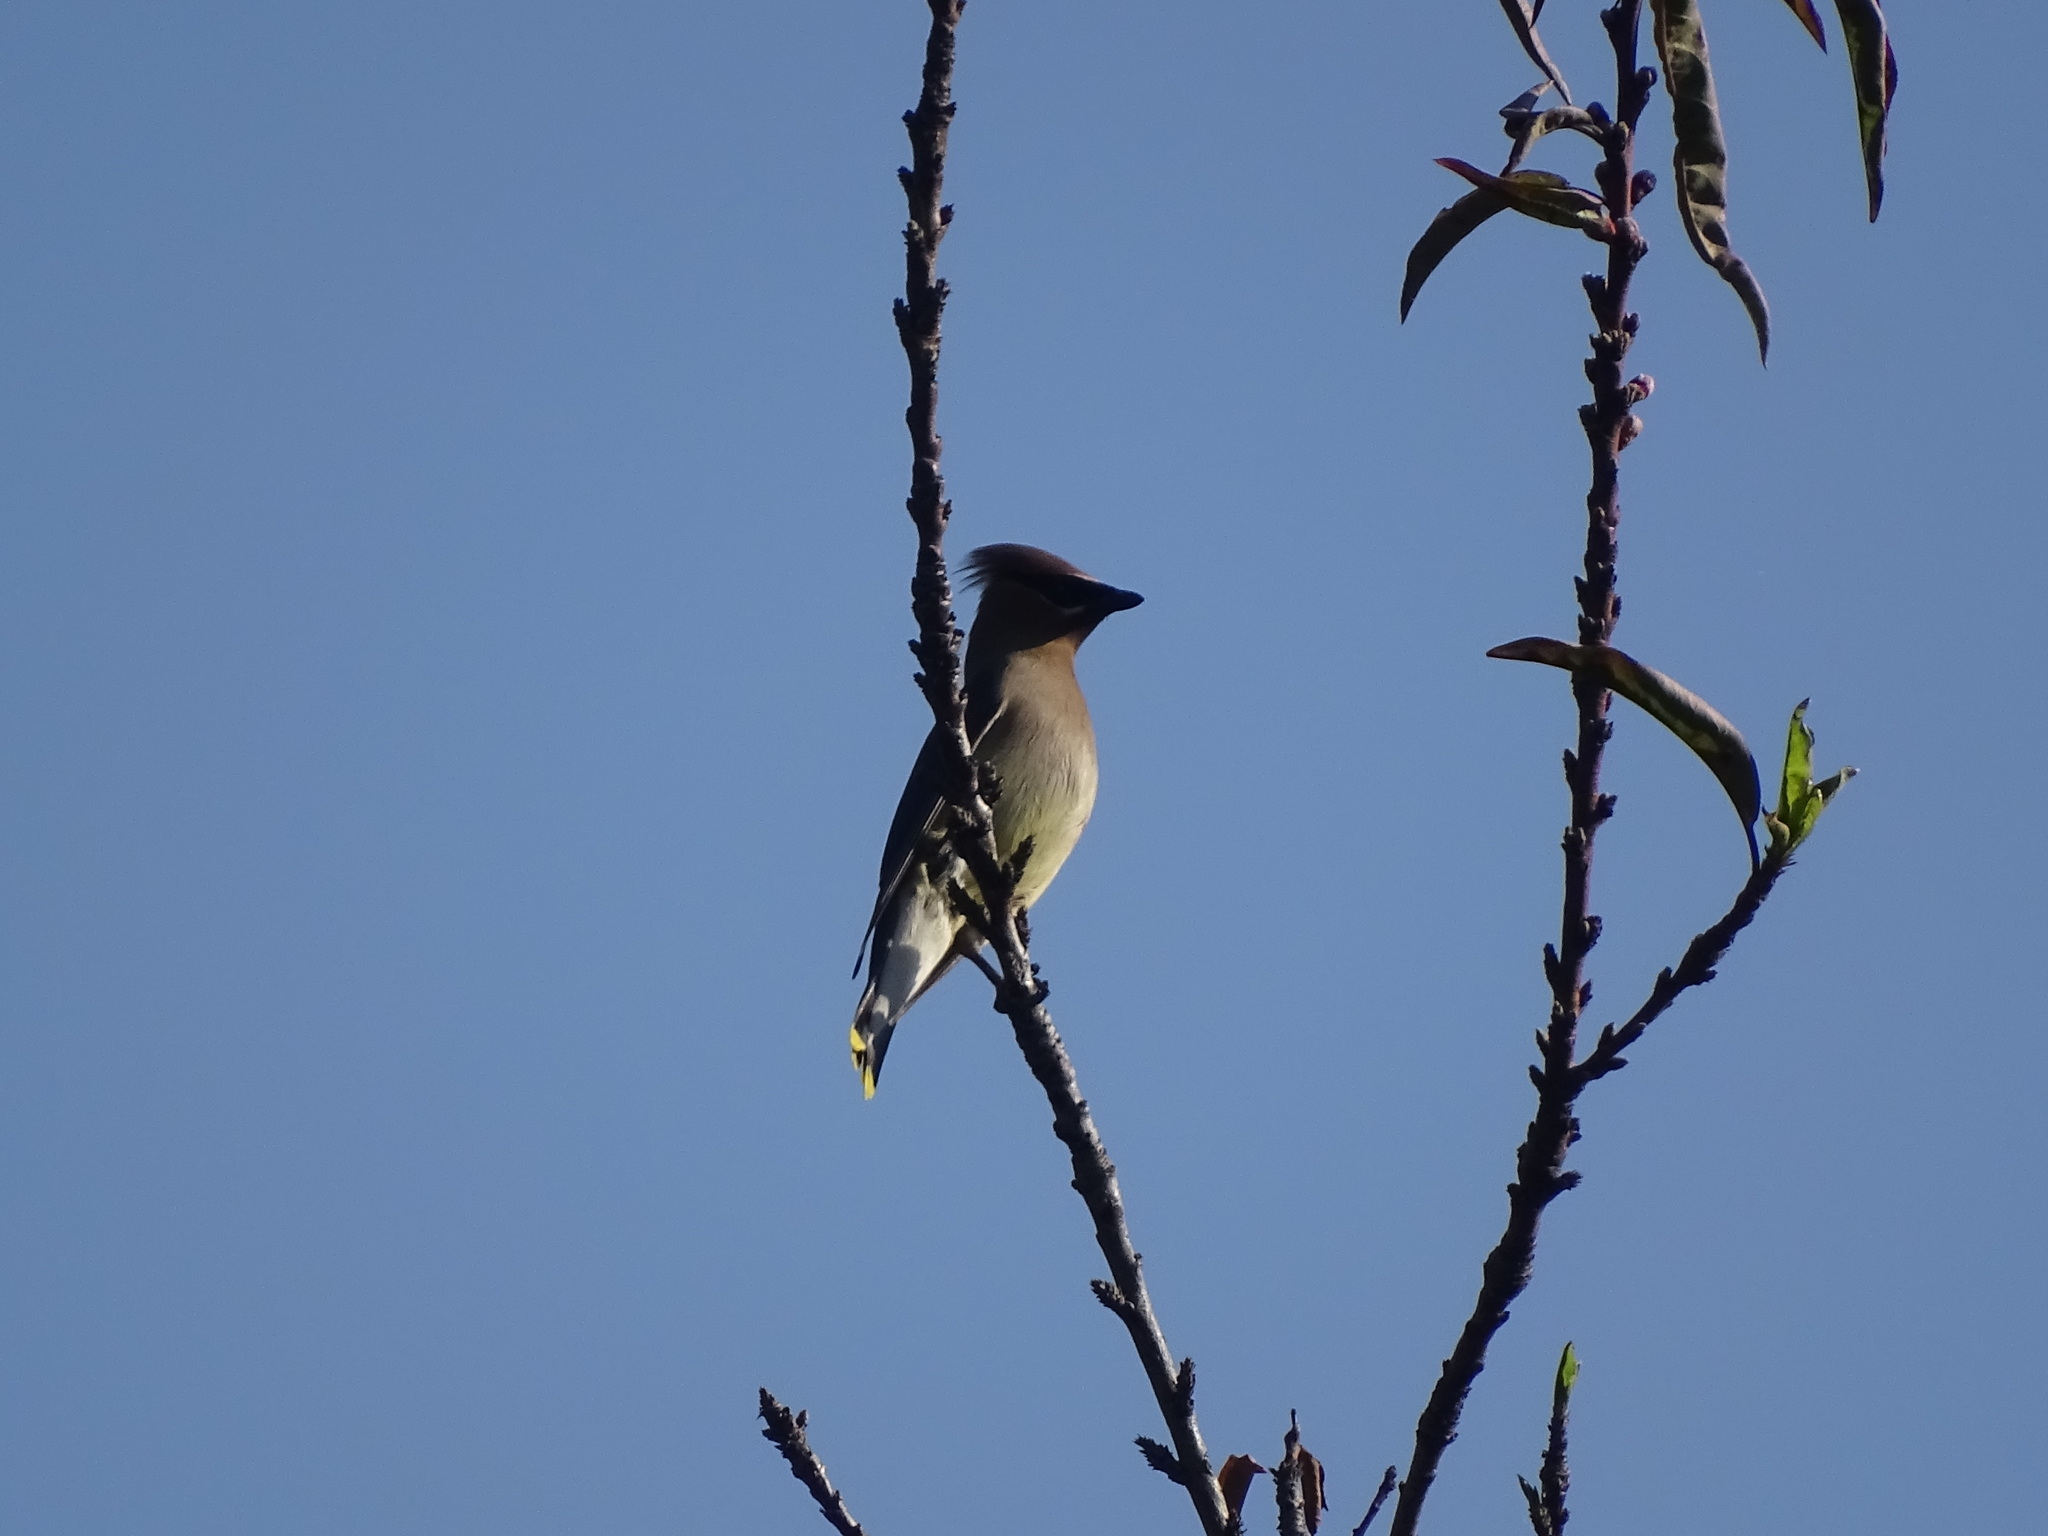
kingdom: Animalia
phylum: Chordata
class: Aves
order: Passeriformes
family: Bombycillidae
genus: Bombycilla
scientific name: Bombycilla cedrorum
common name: Cedar waxwing
